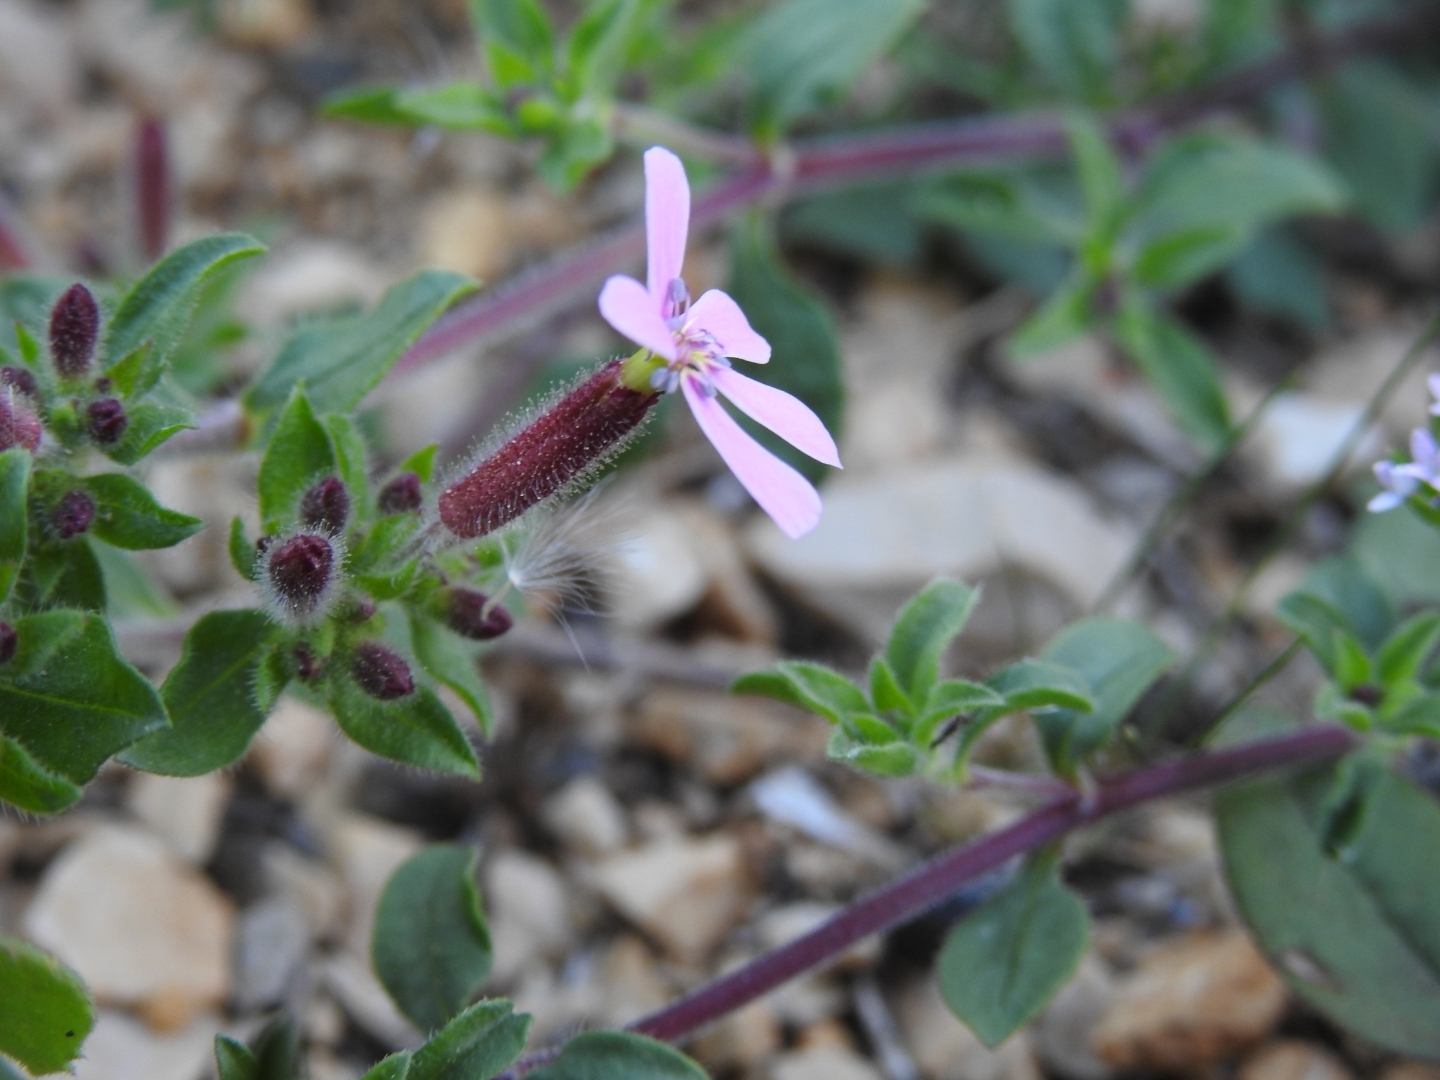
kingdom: Plantae
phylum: Tracheophyta
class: Magnoliopsida
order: Caryophyllales
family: Caryophyllaceae
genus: Saponaria
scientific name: Saponaria ocymoides
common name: Rock soapwort
